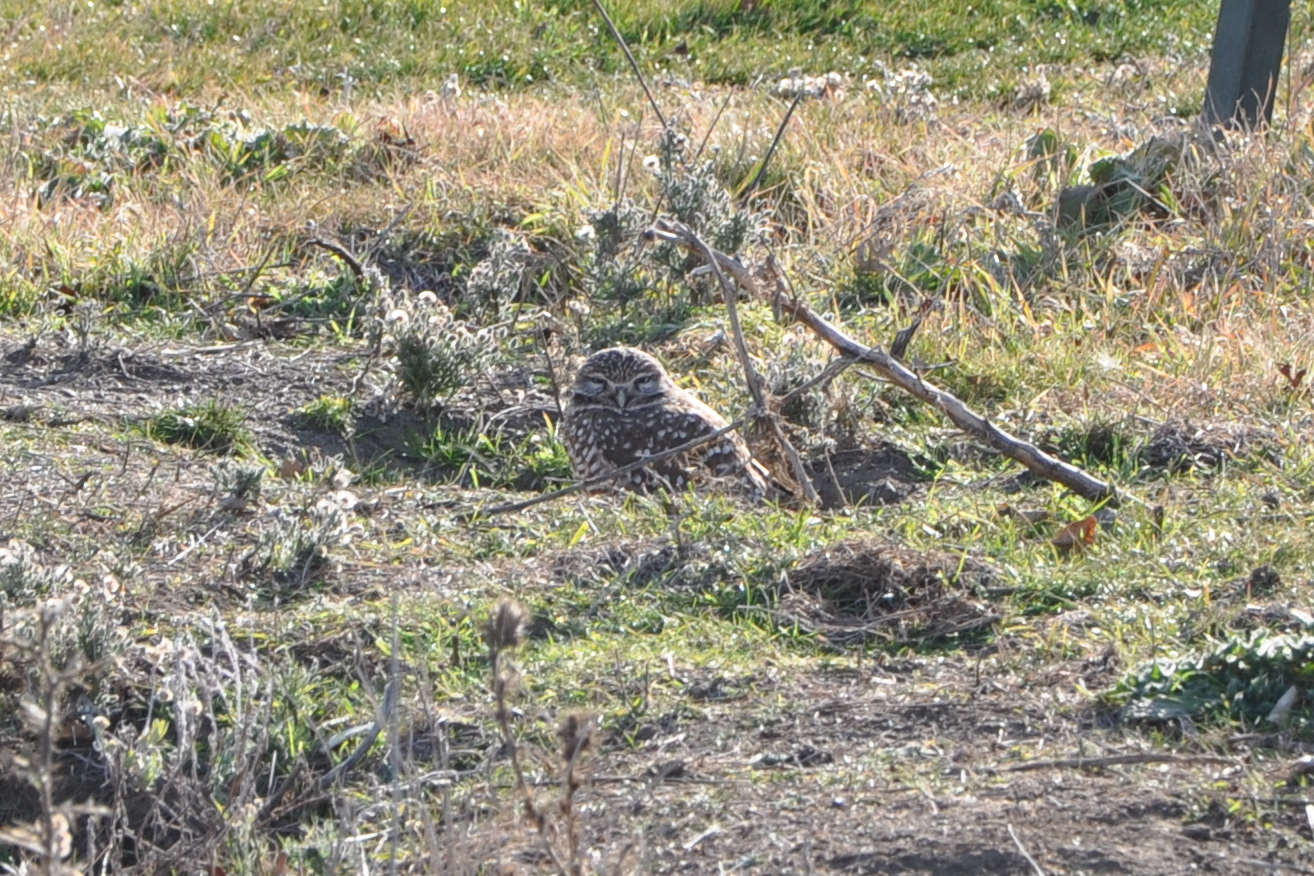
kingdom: Animalia
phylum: Chordata
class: Aves
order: Strigiformes
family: Strigidae
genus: Athene
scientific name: Athene cunicularia
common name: Burrowing owl
